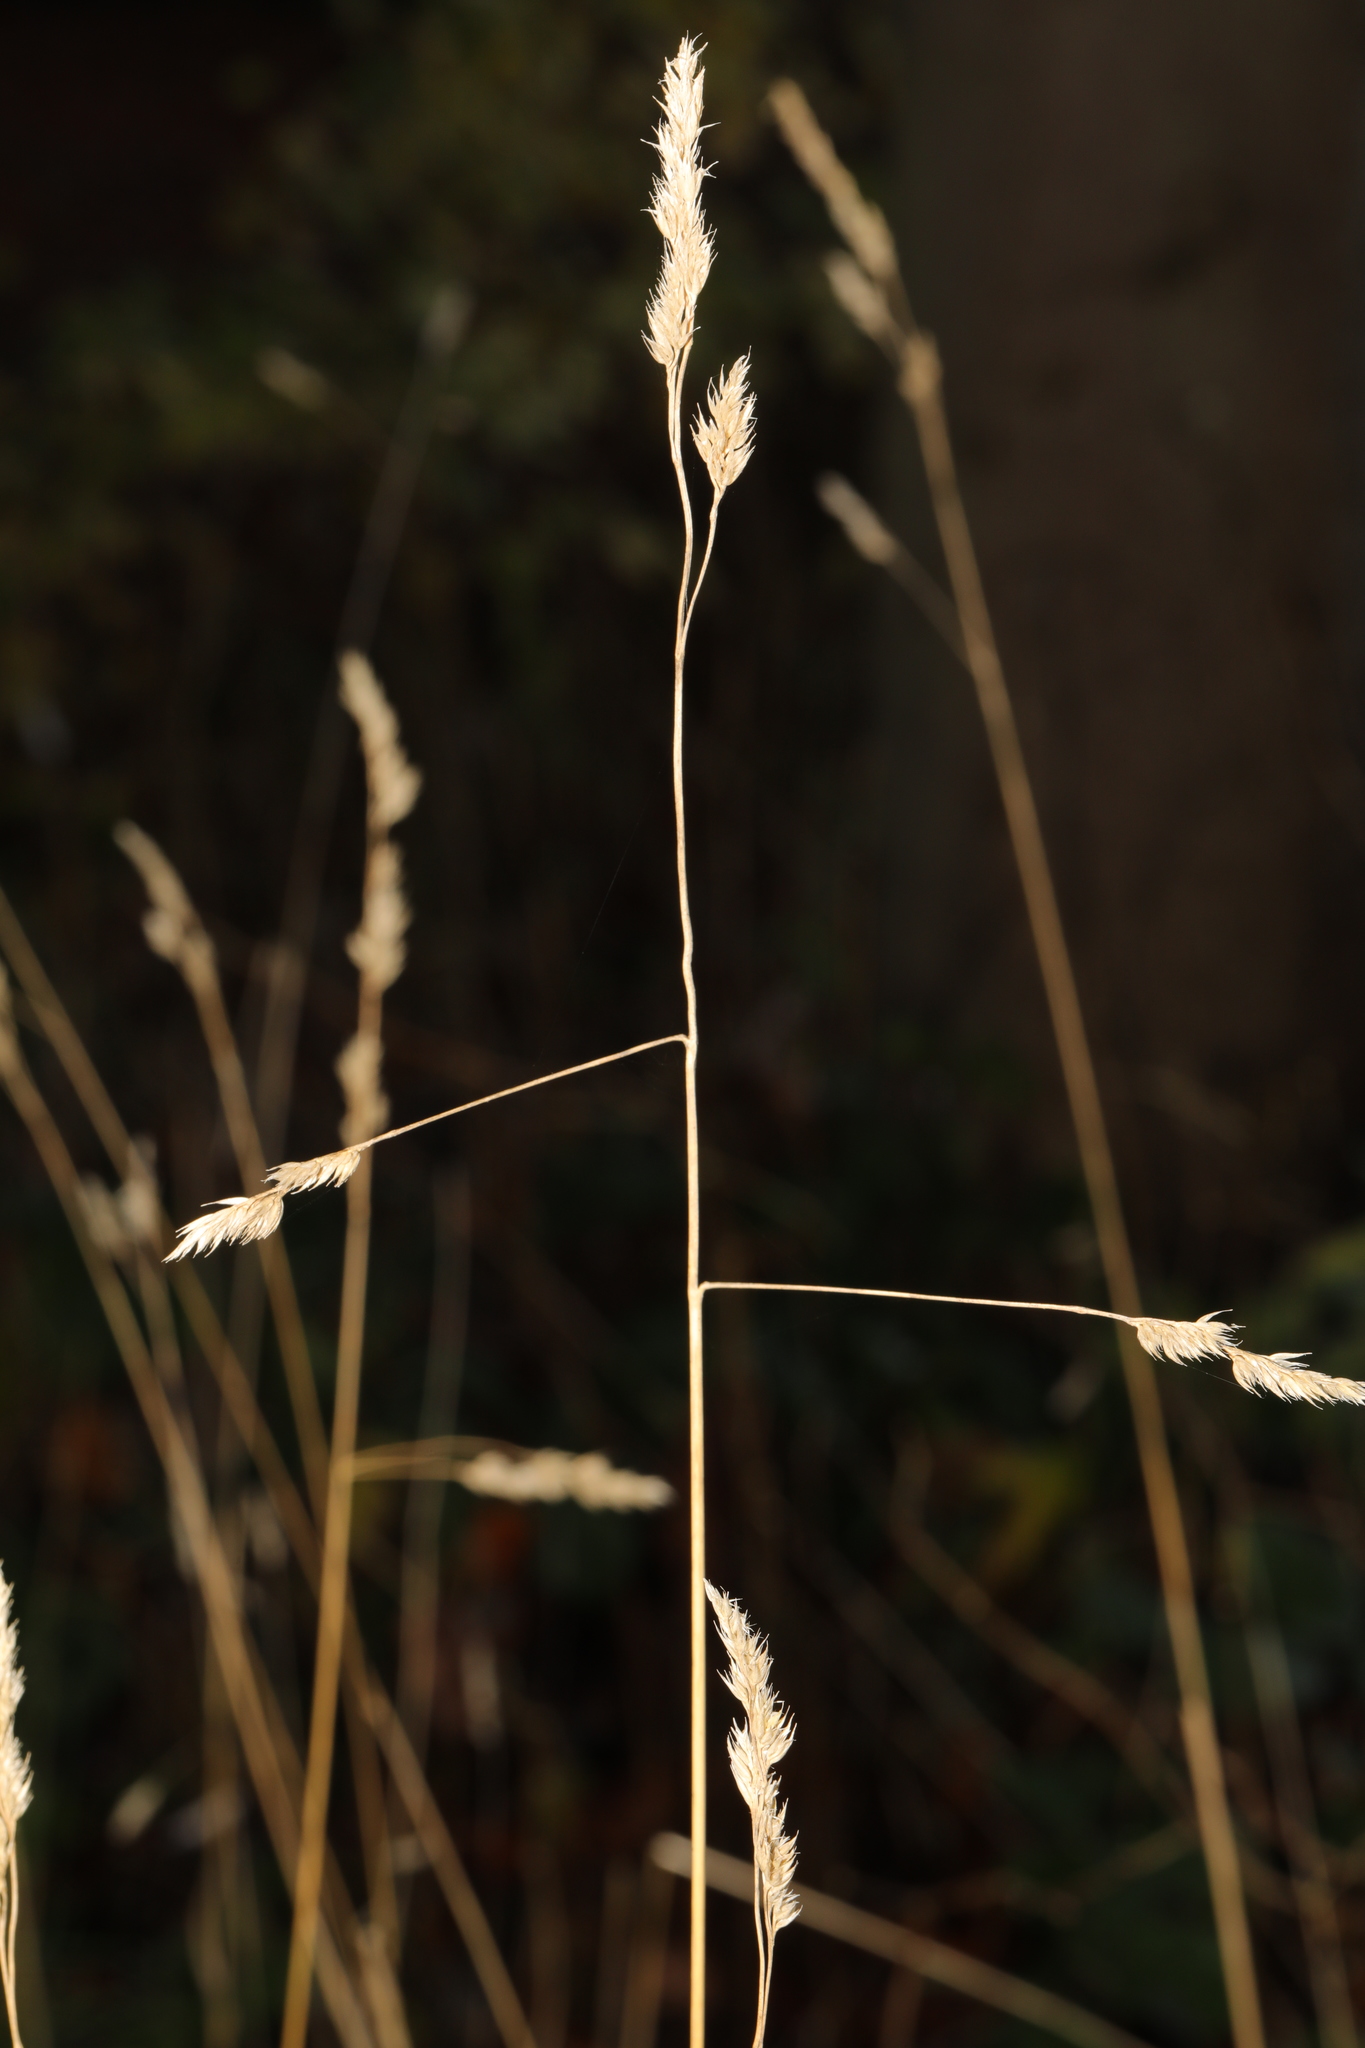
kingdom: Plantae
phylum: Tracheophyta
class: Liliopsida
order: Poales
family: Poaceae
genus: Dactylis
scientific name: Dactylis glomerata
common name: Orchardgrass
